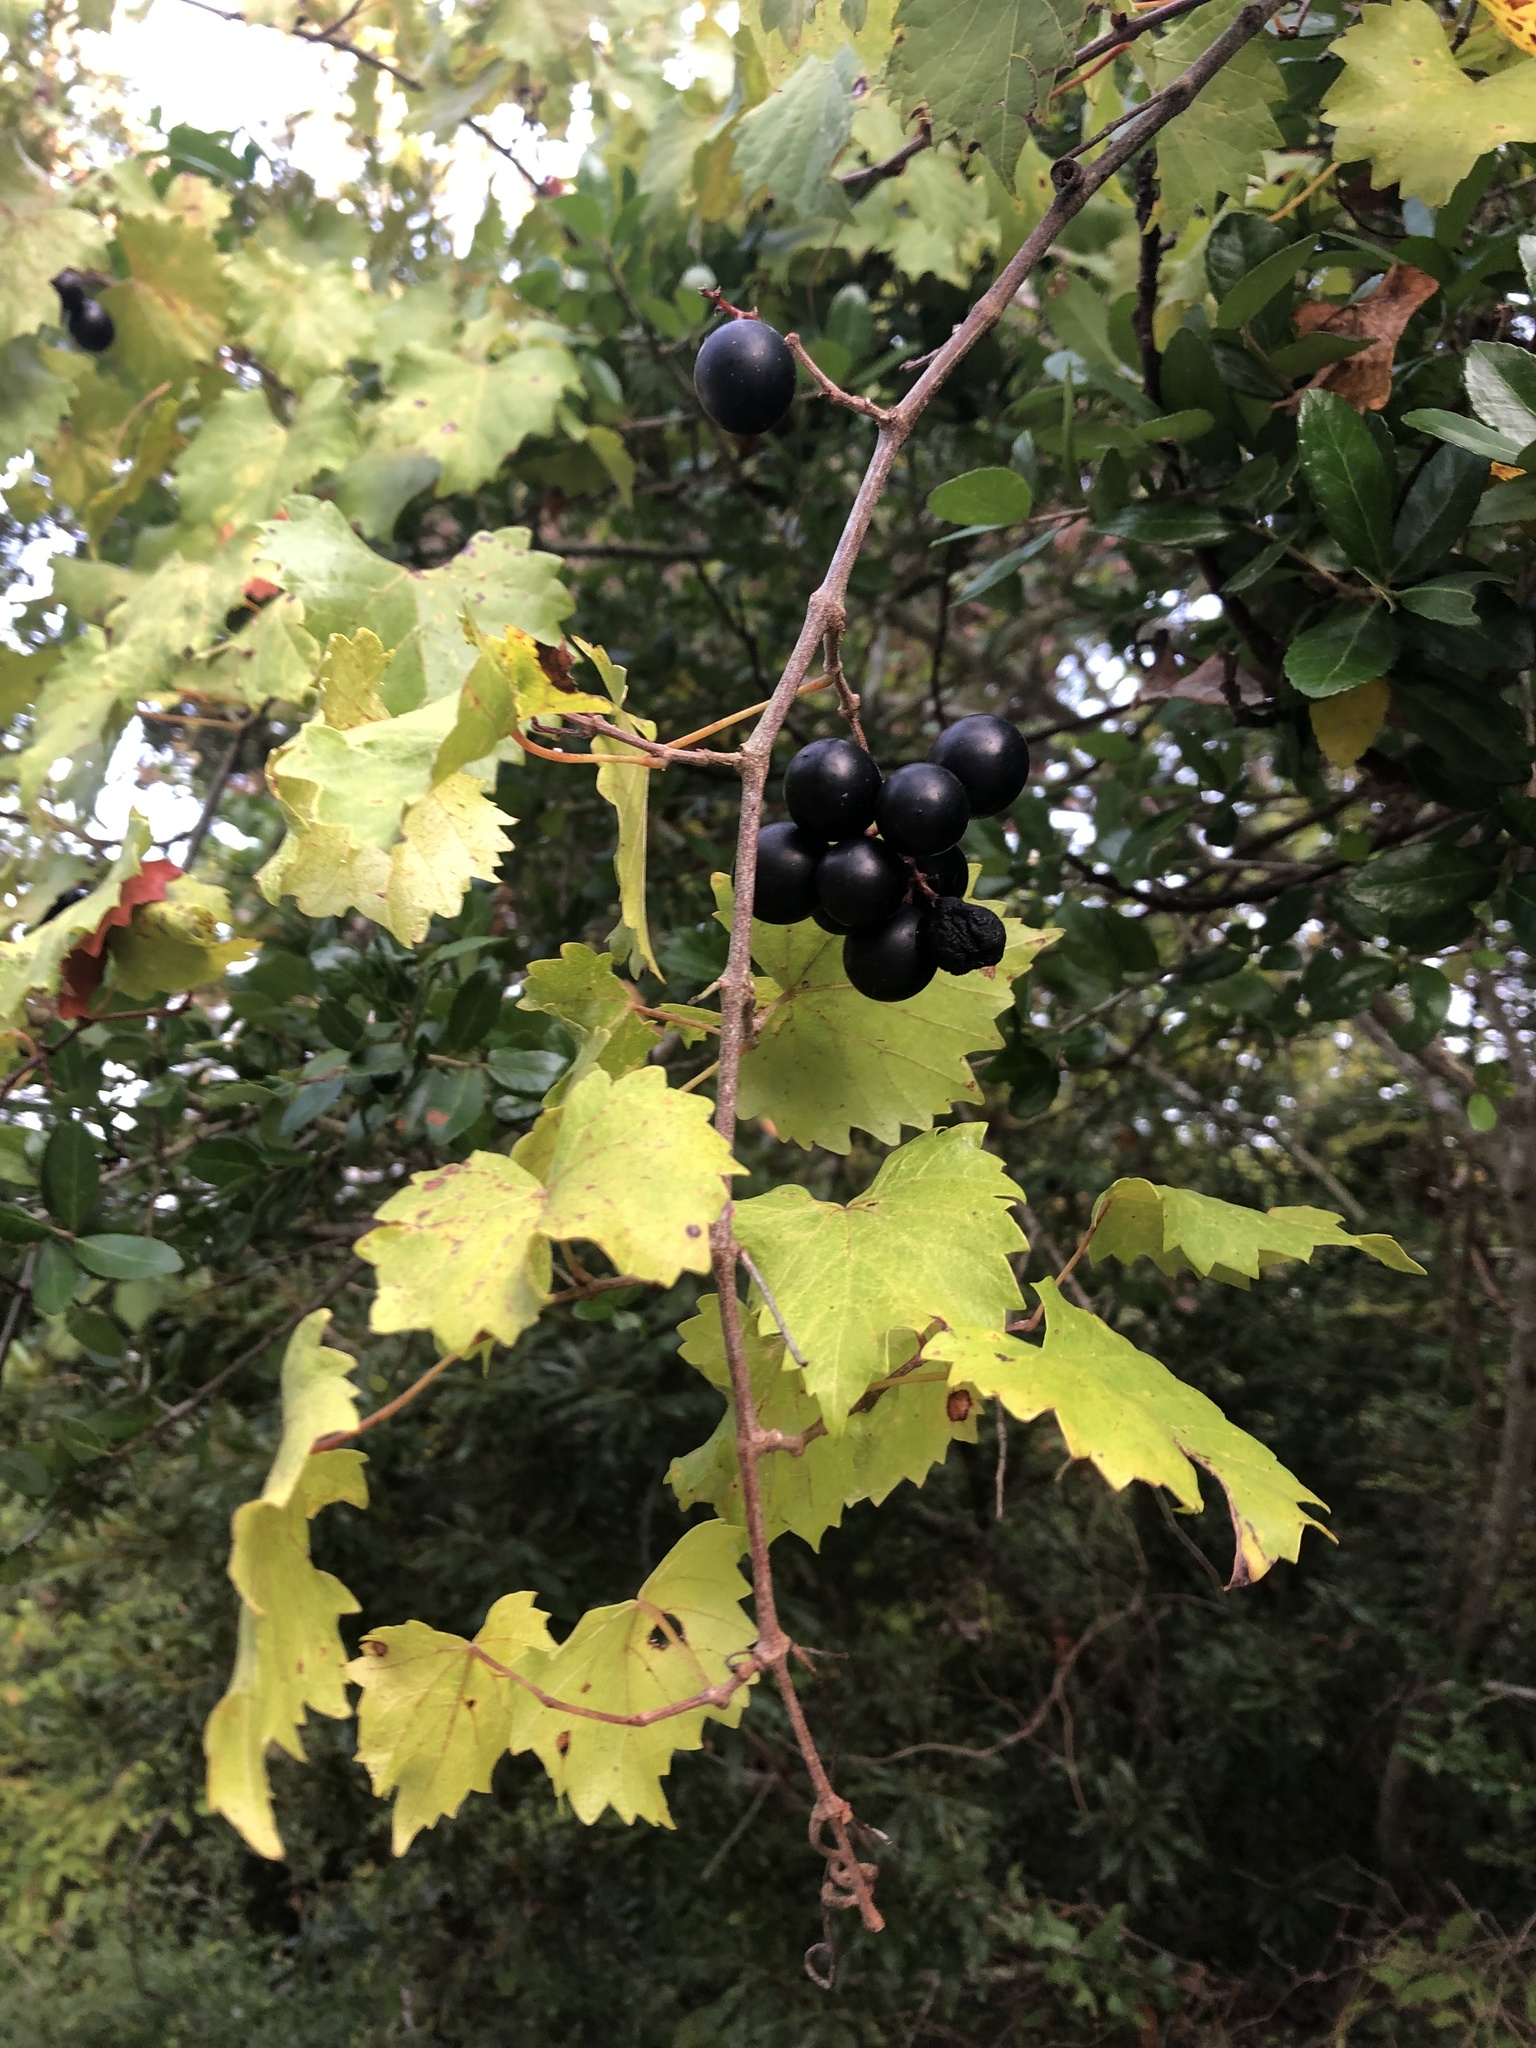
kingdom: Plantae
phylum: Tracheophyta
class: Magnoliopsida
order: Vitales
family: Vitaceae
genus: Vitis
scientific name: Vitis rotundifolia
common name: Muscadine grape
